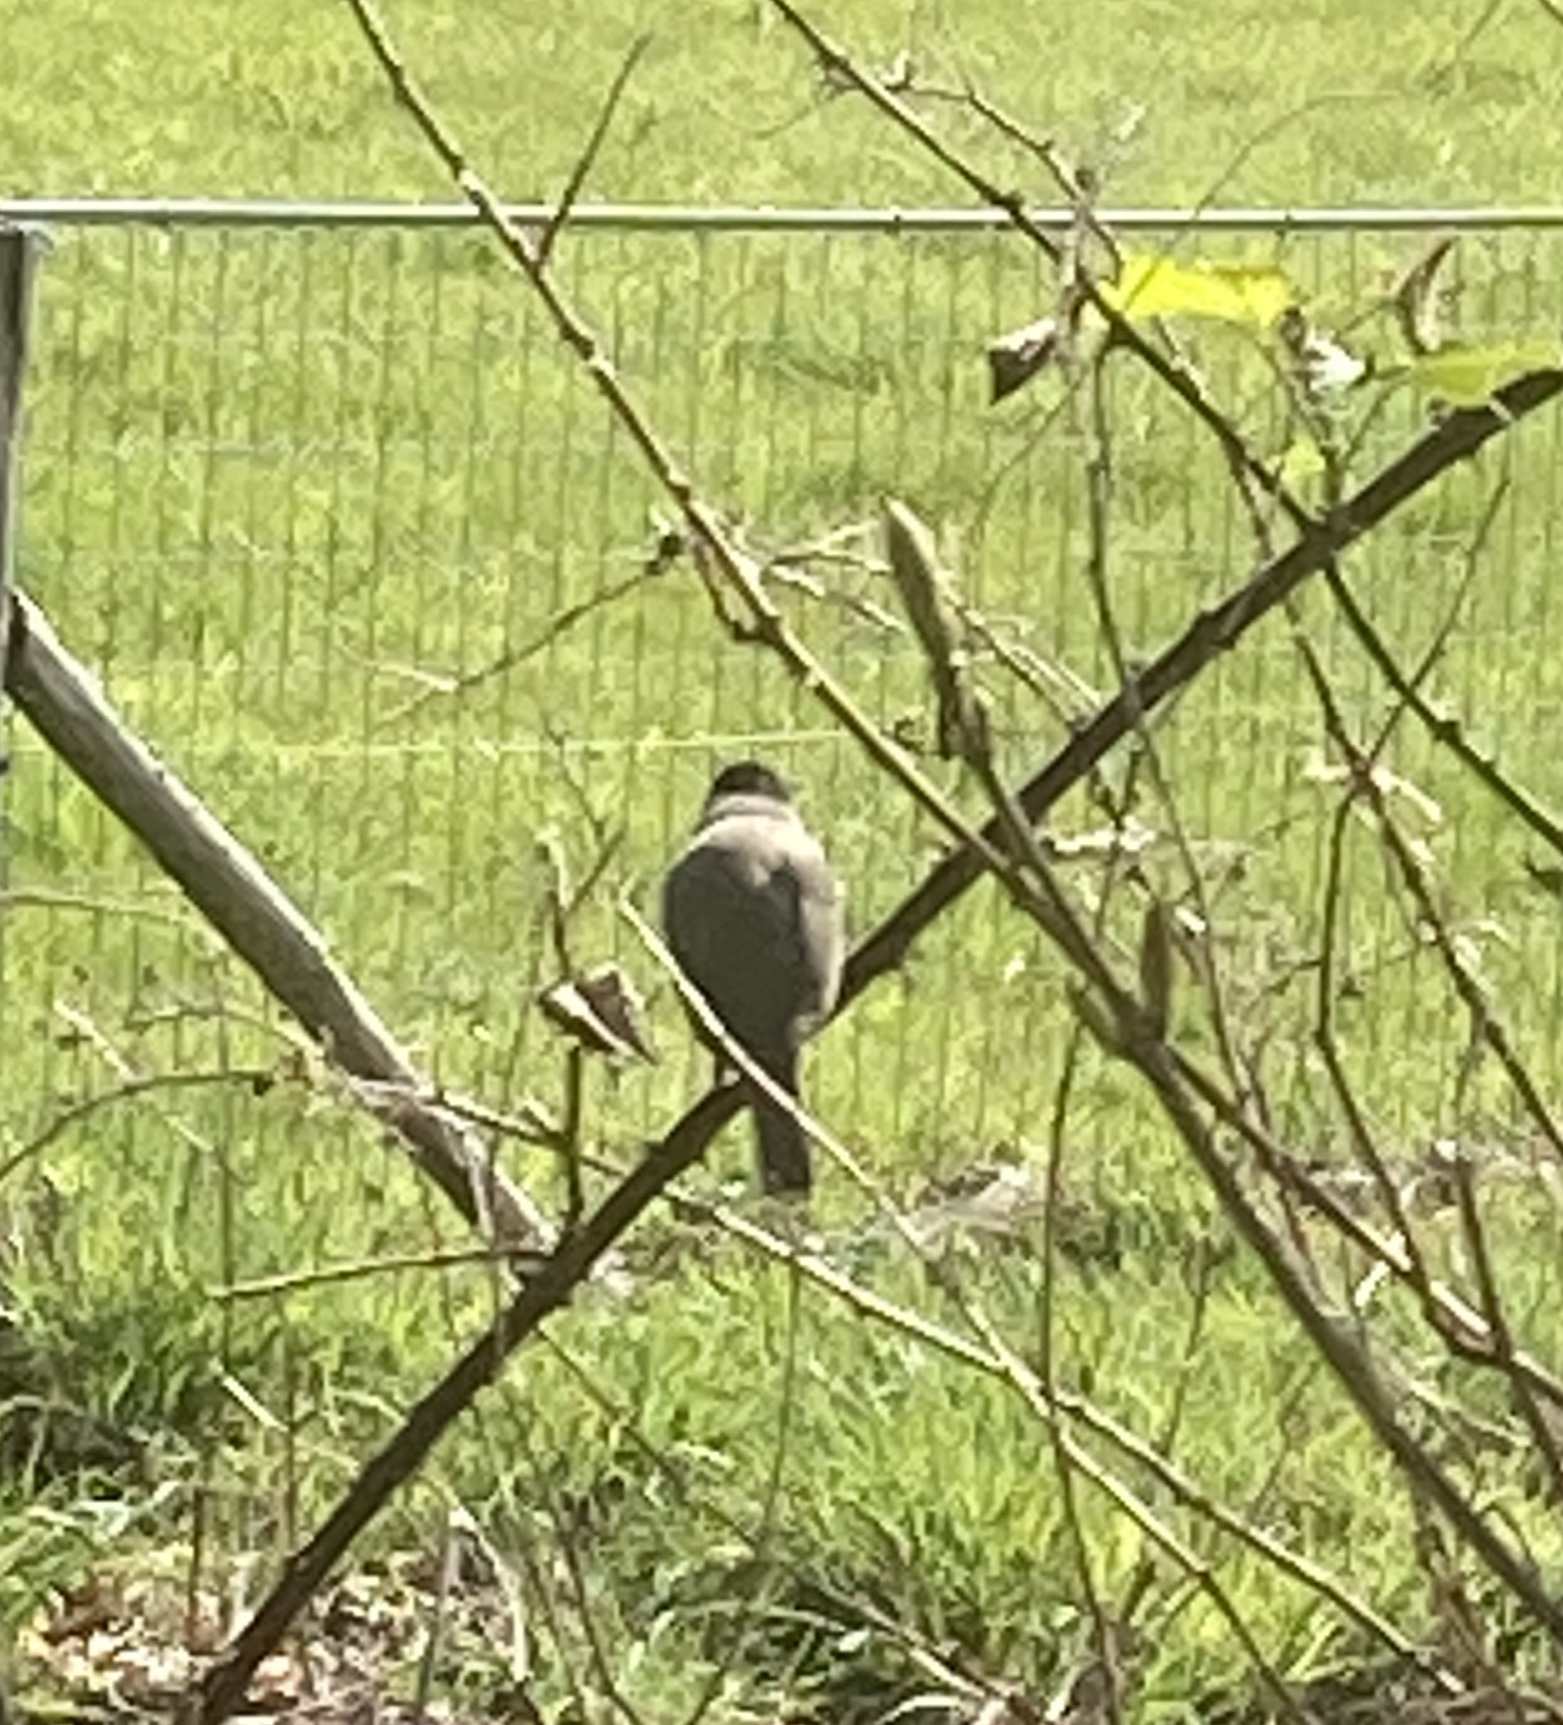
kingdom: Animalia
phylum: Chordata
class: Aves
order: Passeriformes
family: Sylviidae
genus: Sylvia
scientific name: Sylvia atricapilla
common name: Eurasian blackcap
